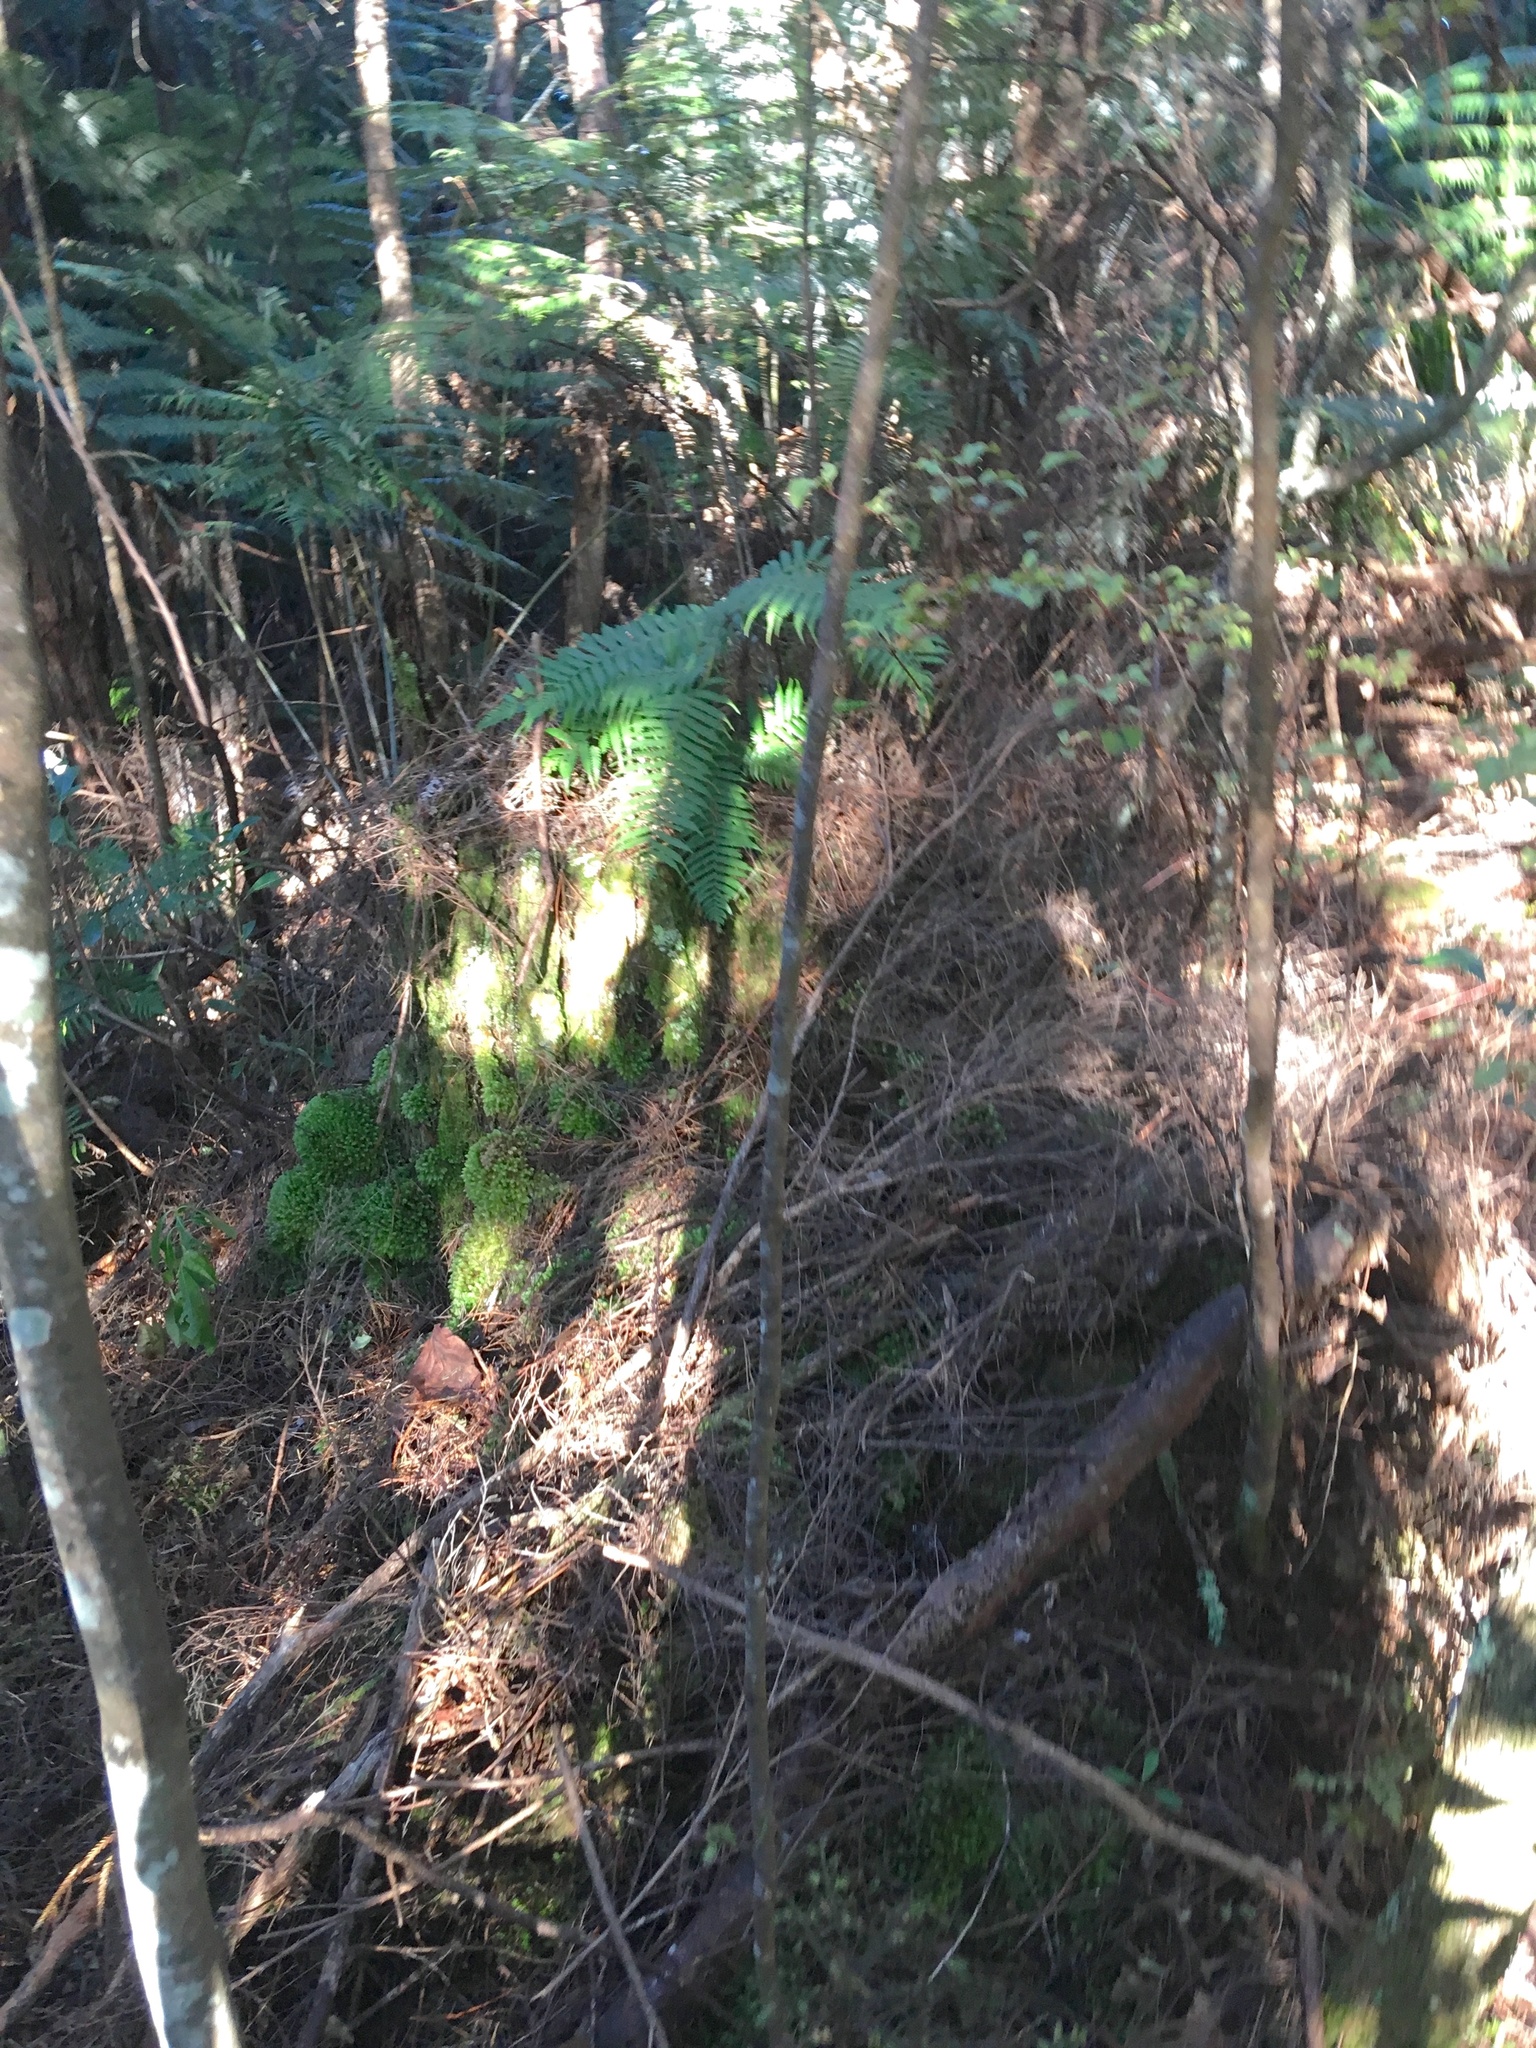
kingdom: Plantae
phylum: Tracheophyta
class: Magnoliopsida
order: Ericales
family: Primulaceae
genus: Myrsine
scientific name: Myrsine australis
